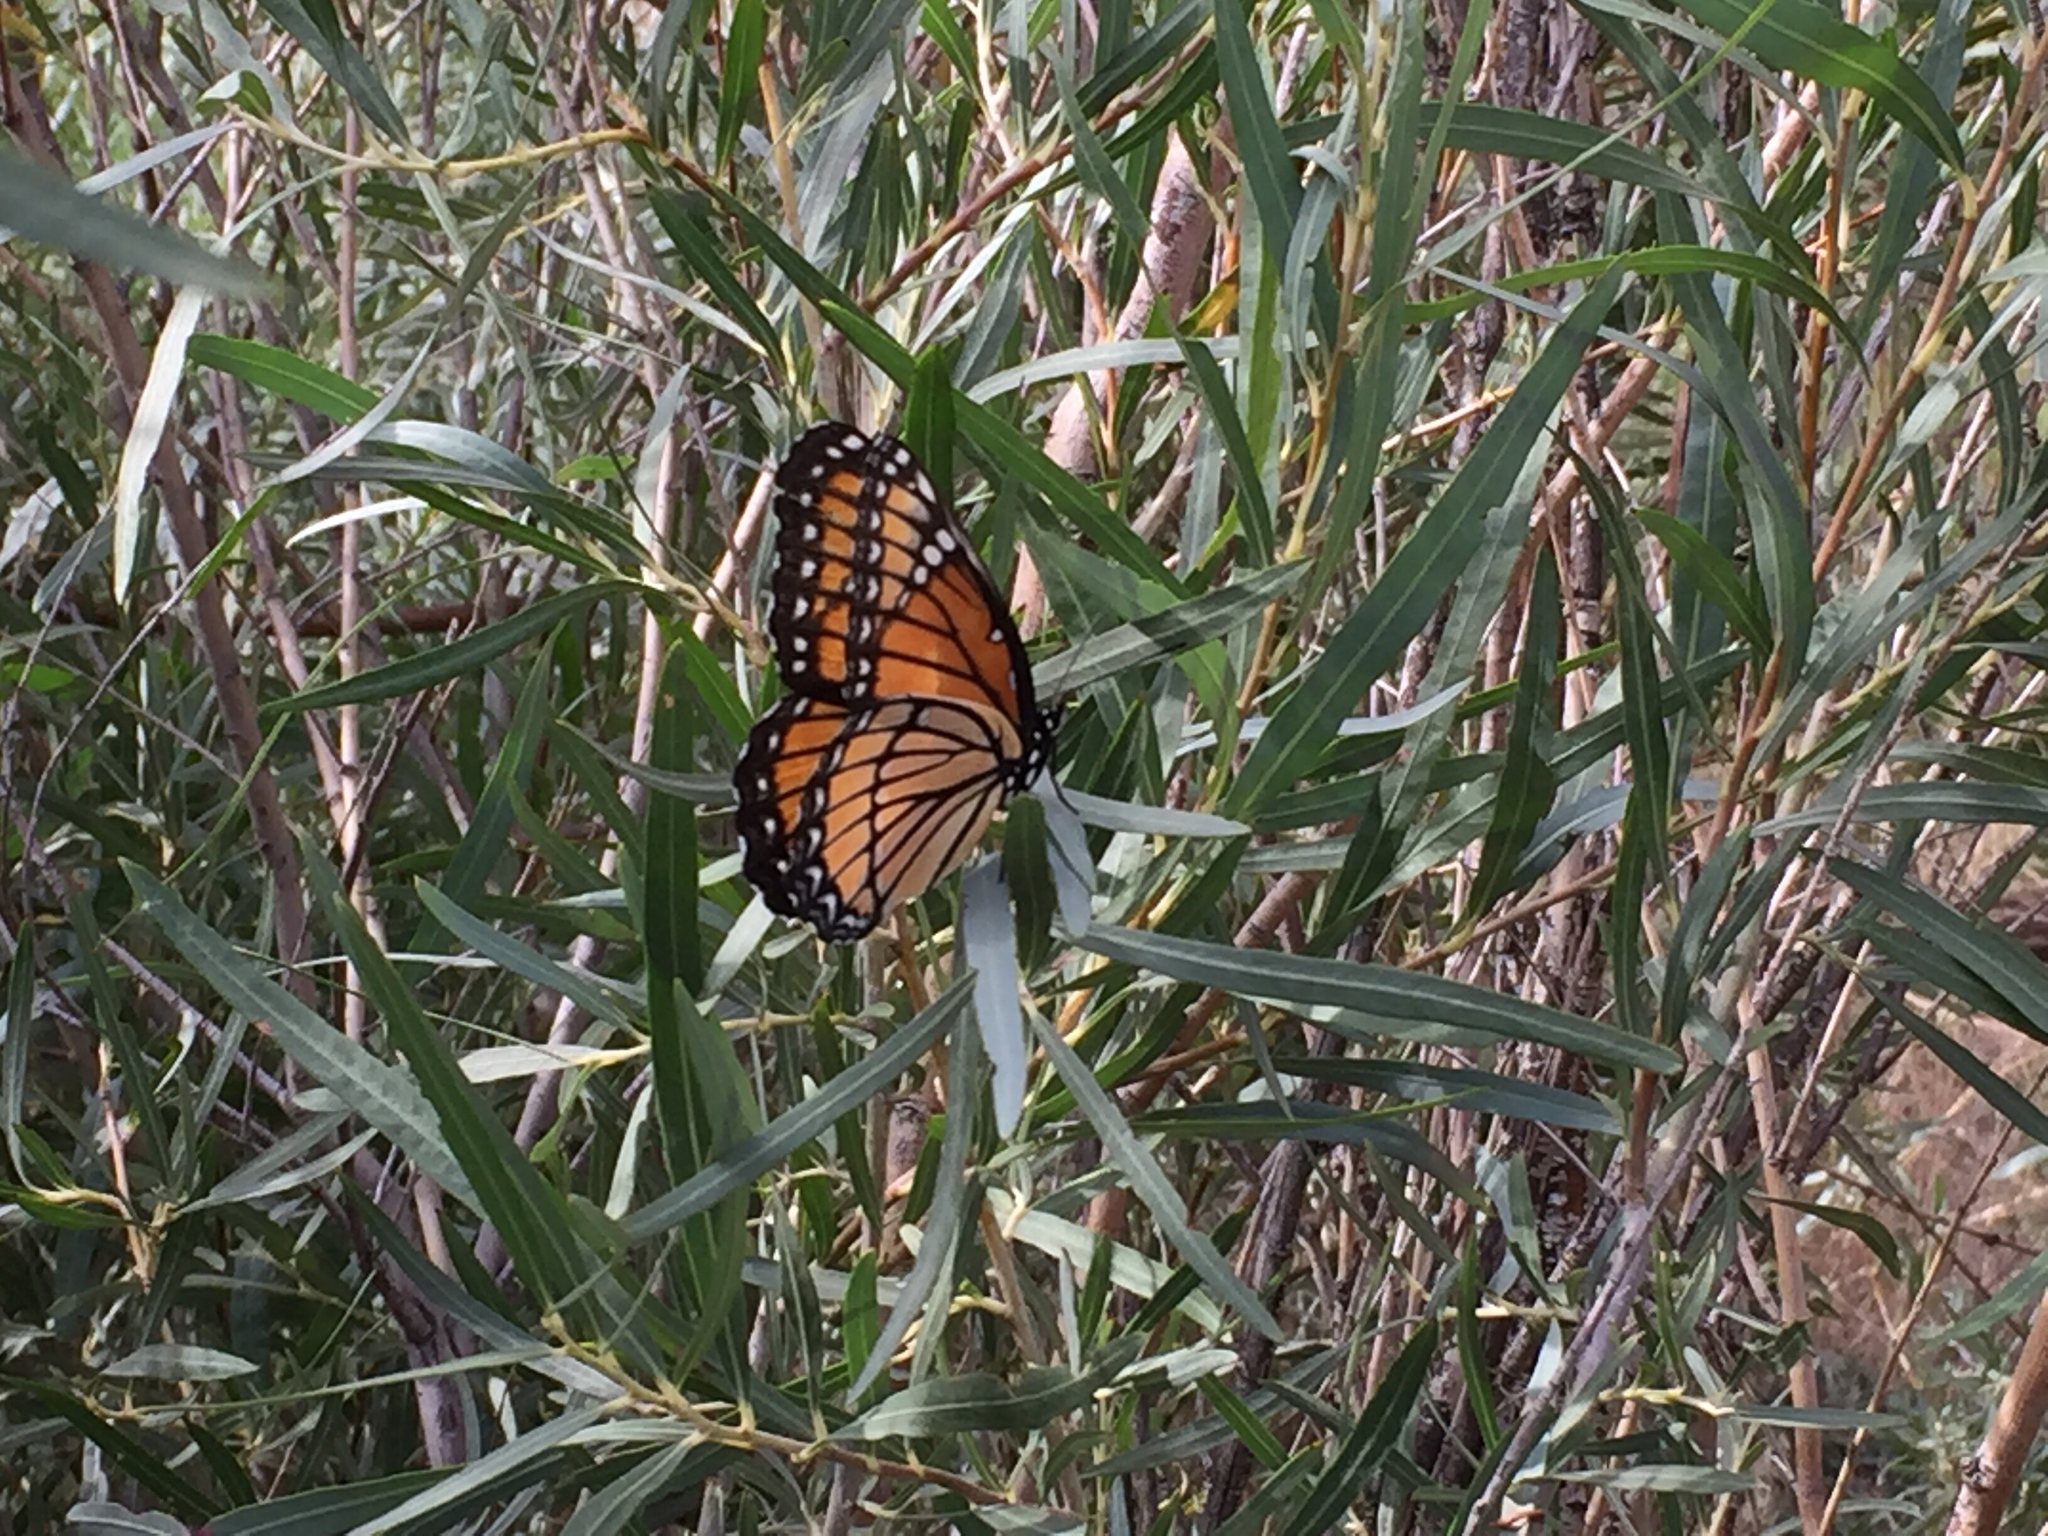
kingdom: Animalia
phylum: Arthropoda
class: Insecta
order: Lepidoptera
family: Nymphalidae
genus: Limenitis
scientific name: Limenitis archippus
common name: Viceroy
